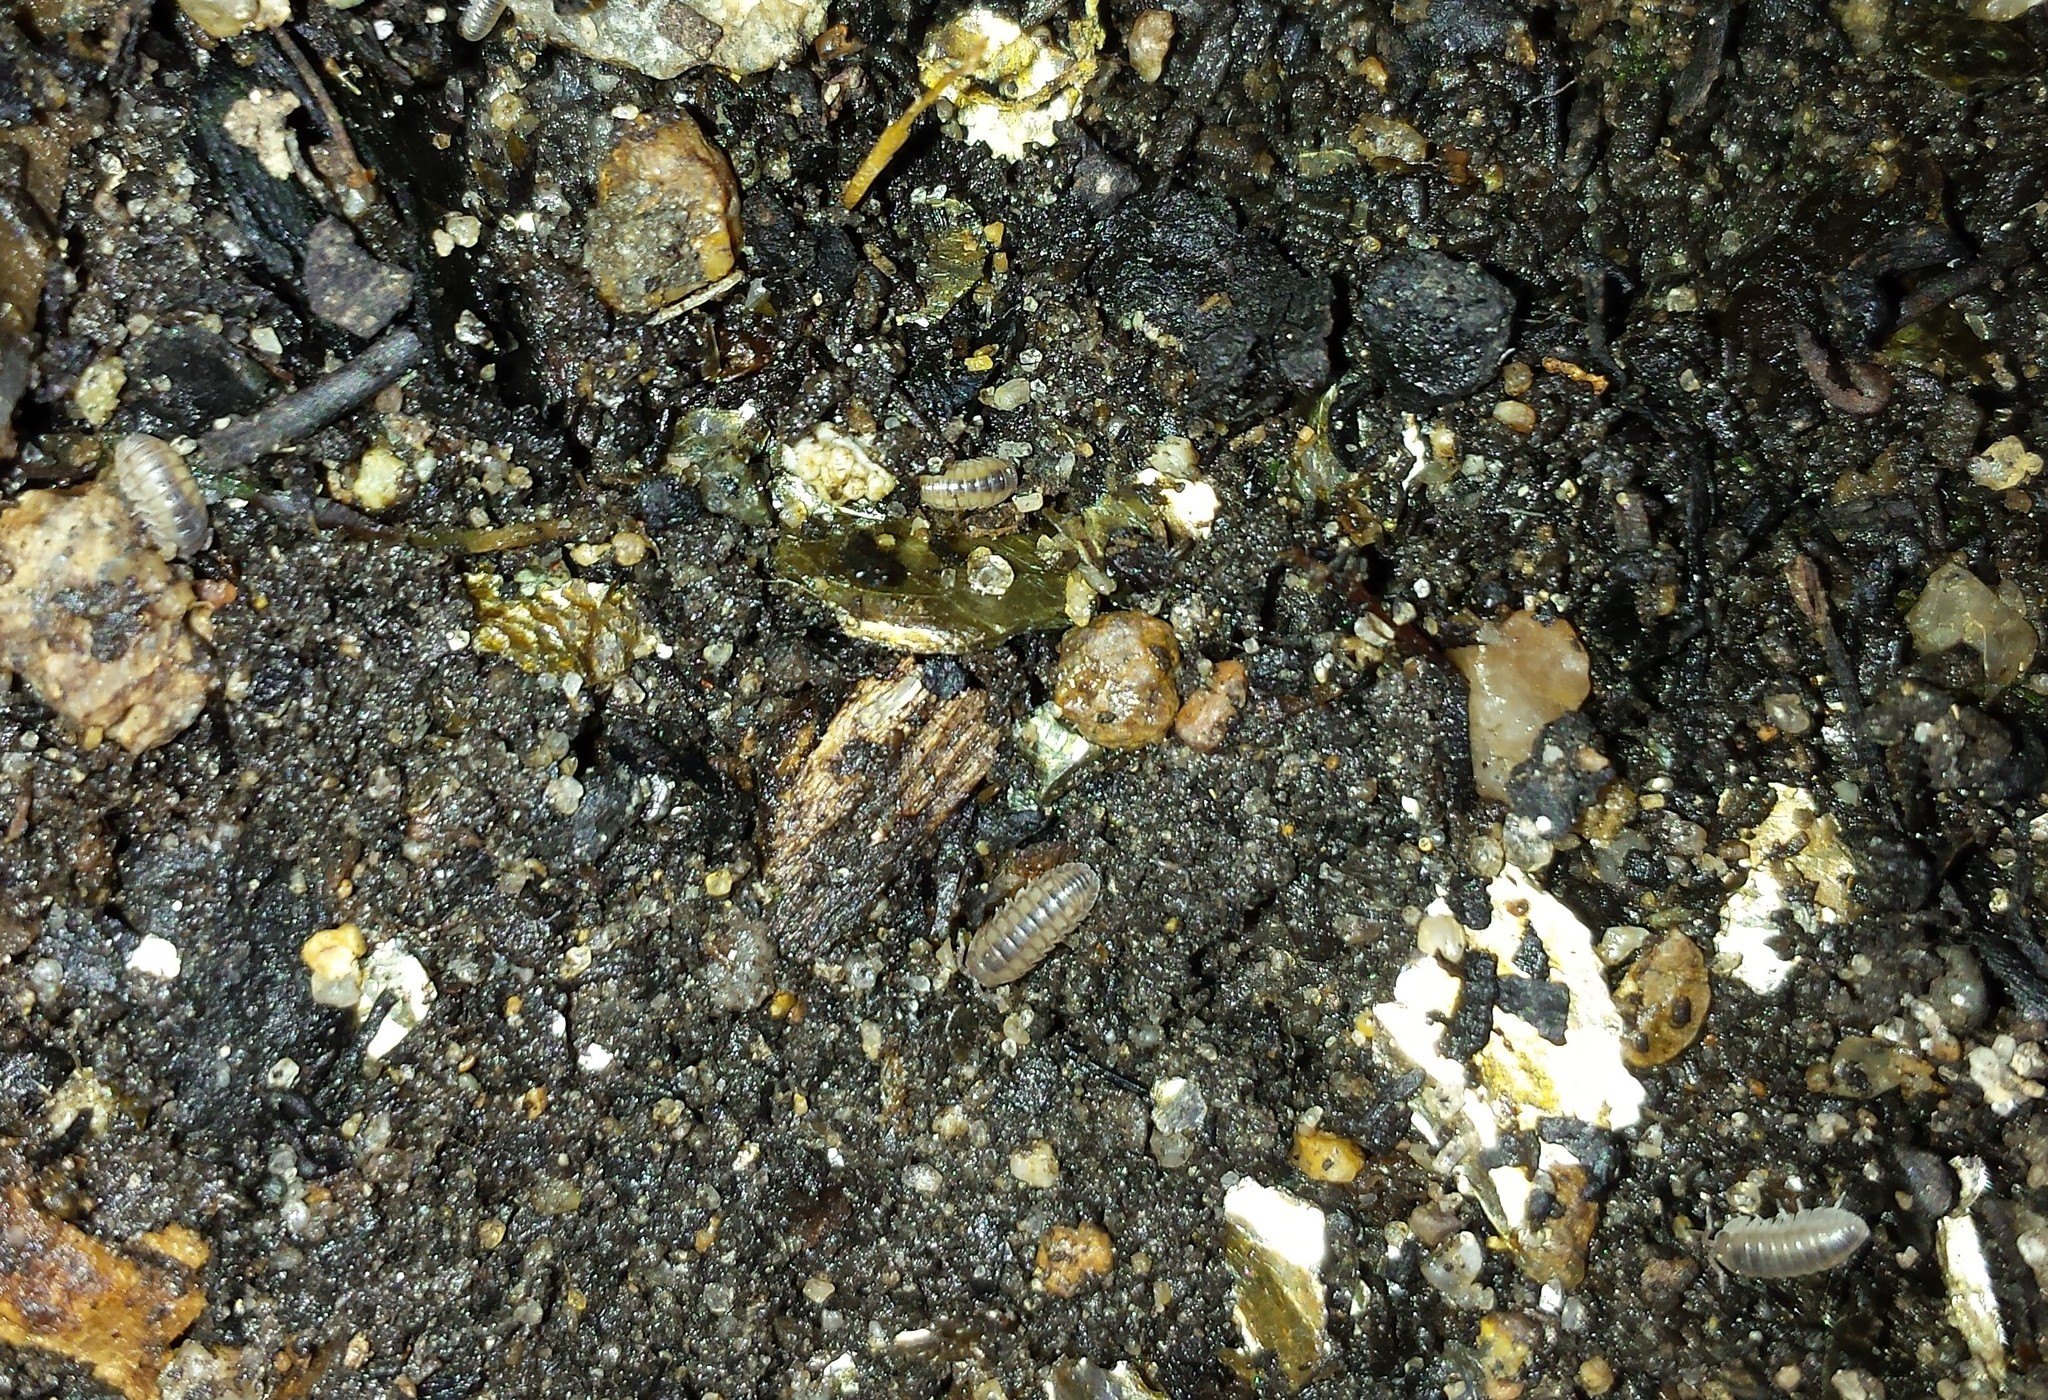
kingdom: Animalia
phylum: Arthropoda
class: Malacostraca
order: Isopoda
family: Armadillidiidae
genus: Armadillidium
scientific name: Armadillidium nasatum
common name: Isopod
